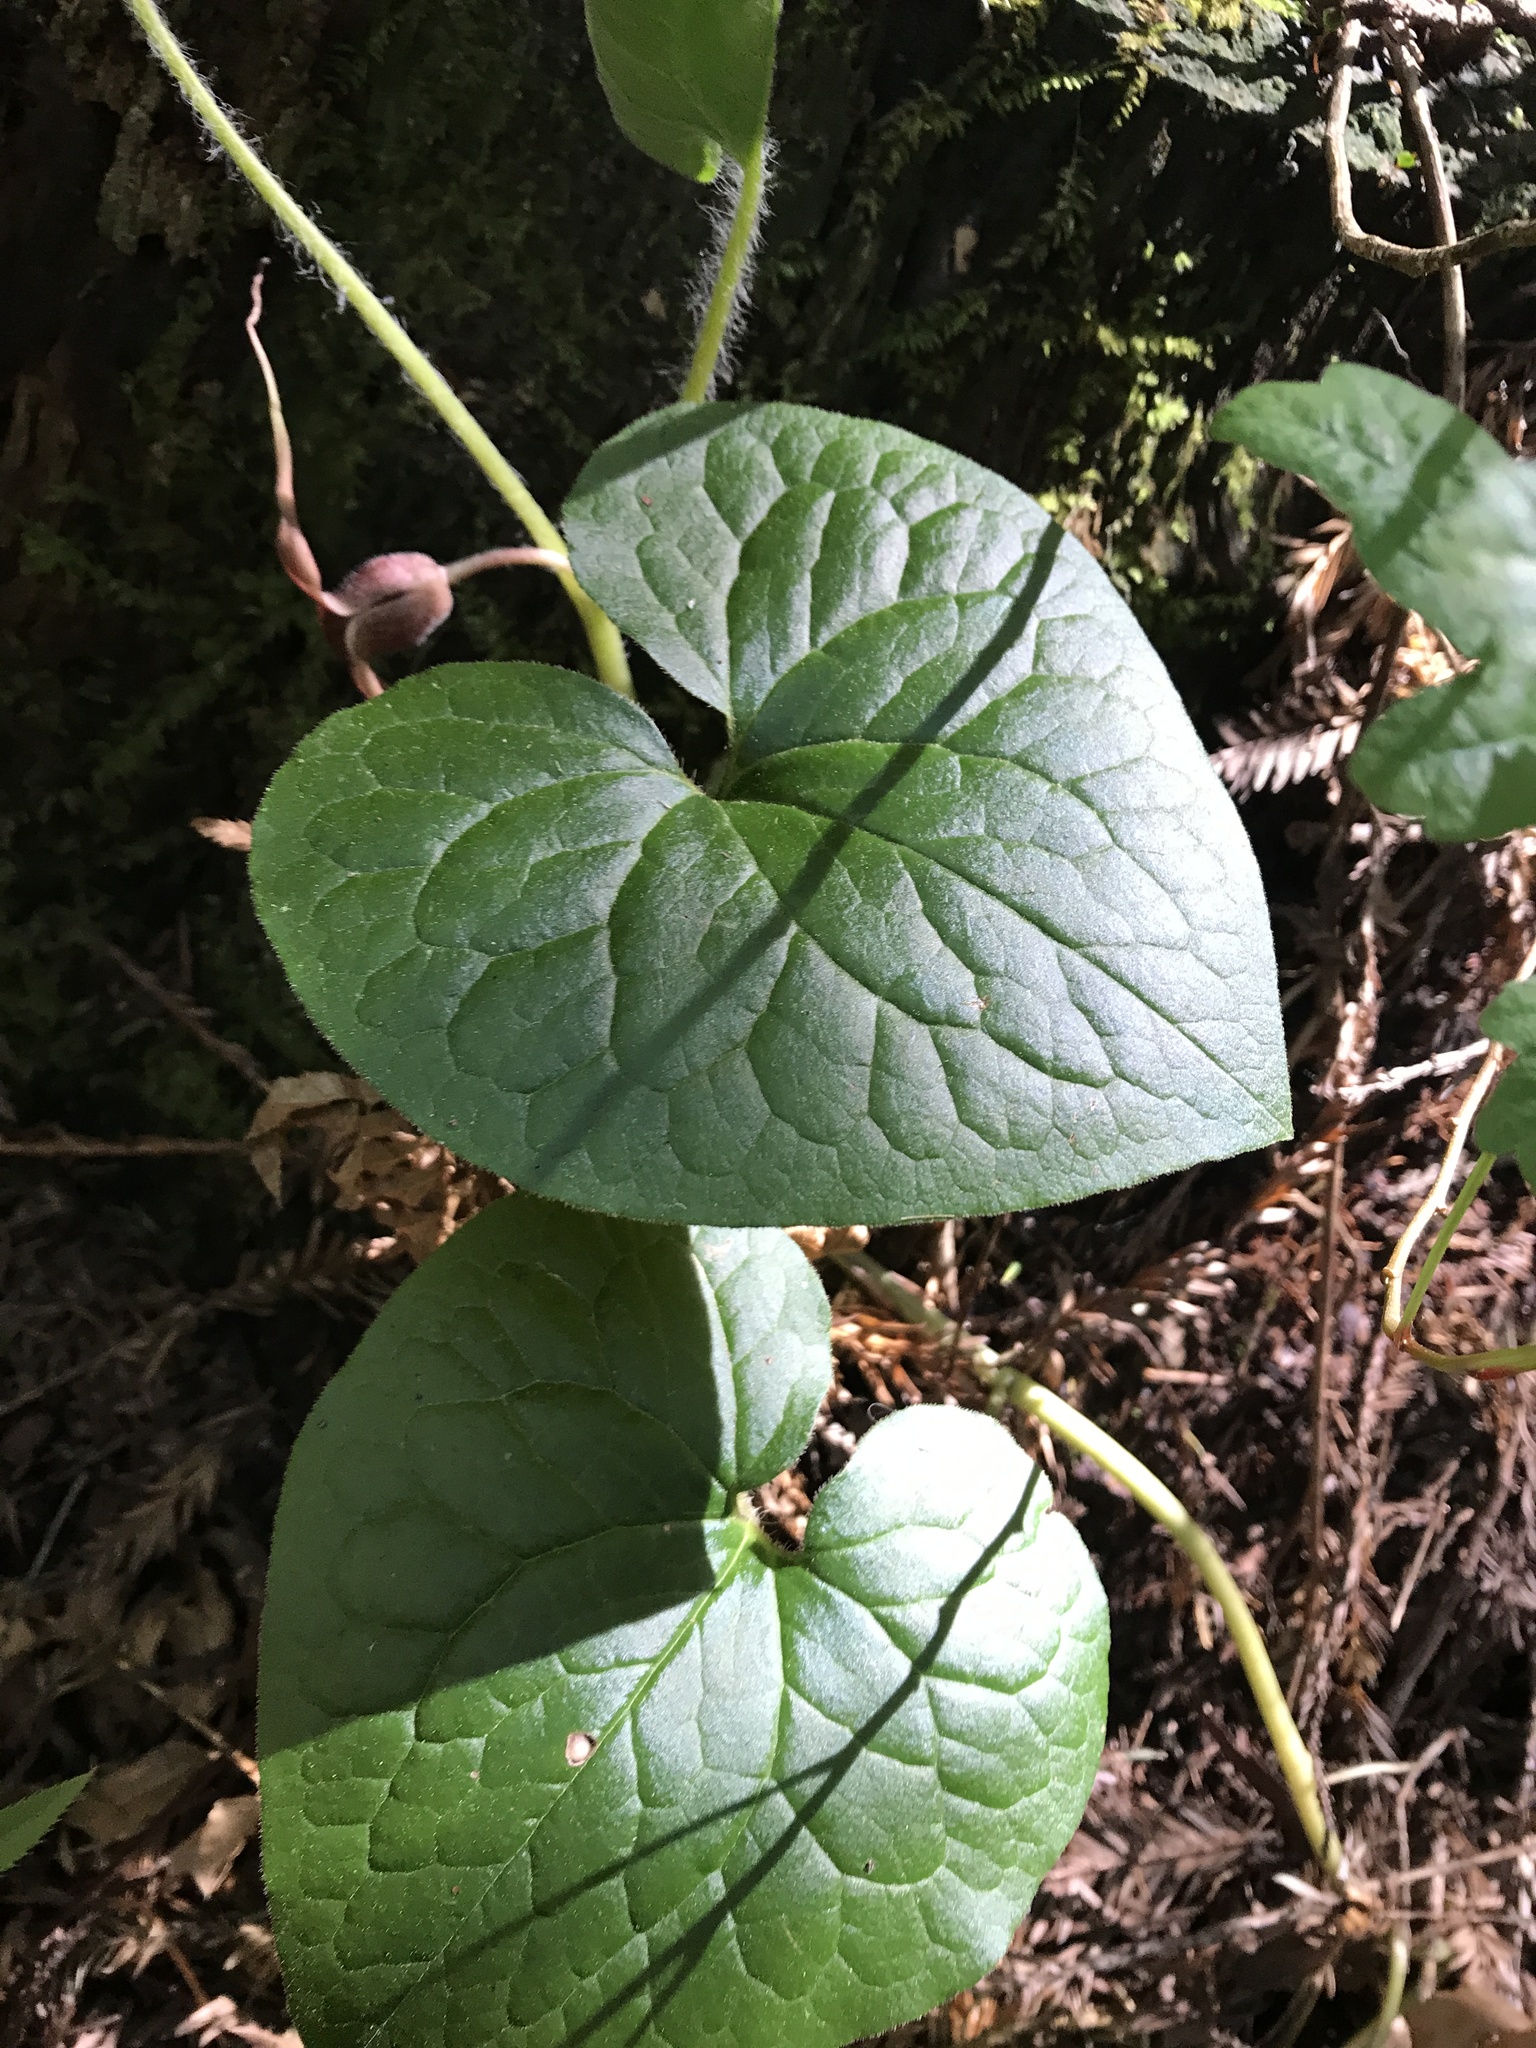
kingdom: Plantae
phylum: Tracheophyta
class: Magnoliopsida
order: Piperales
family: Aristolochiaceae
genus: Asarum
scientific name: Asarum caudatum
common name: Wild ginger
